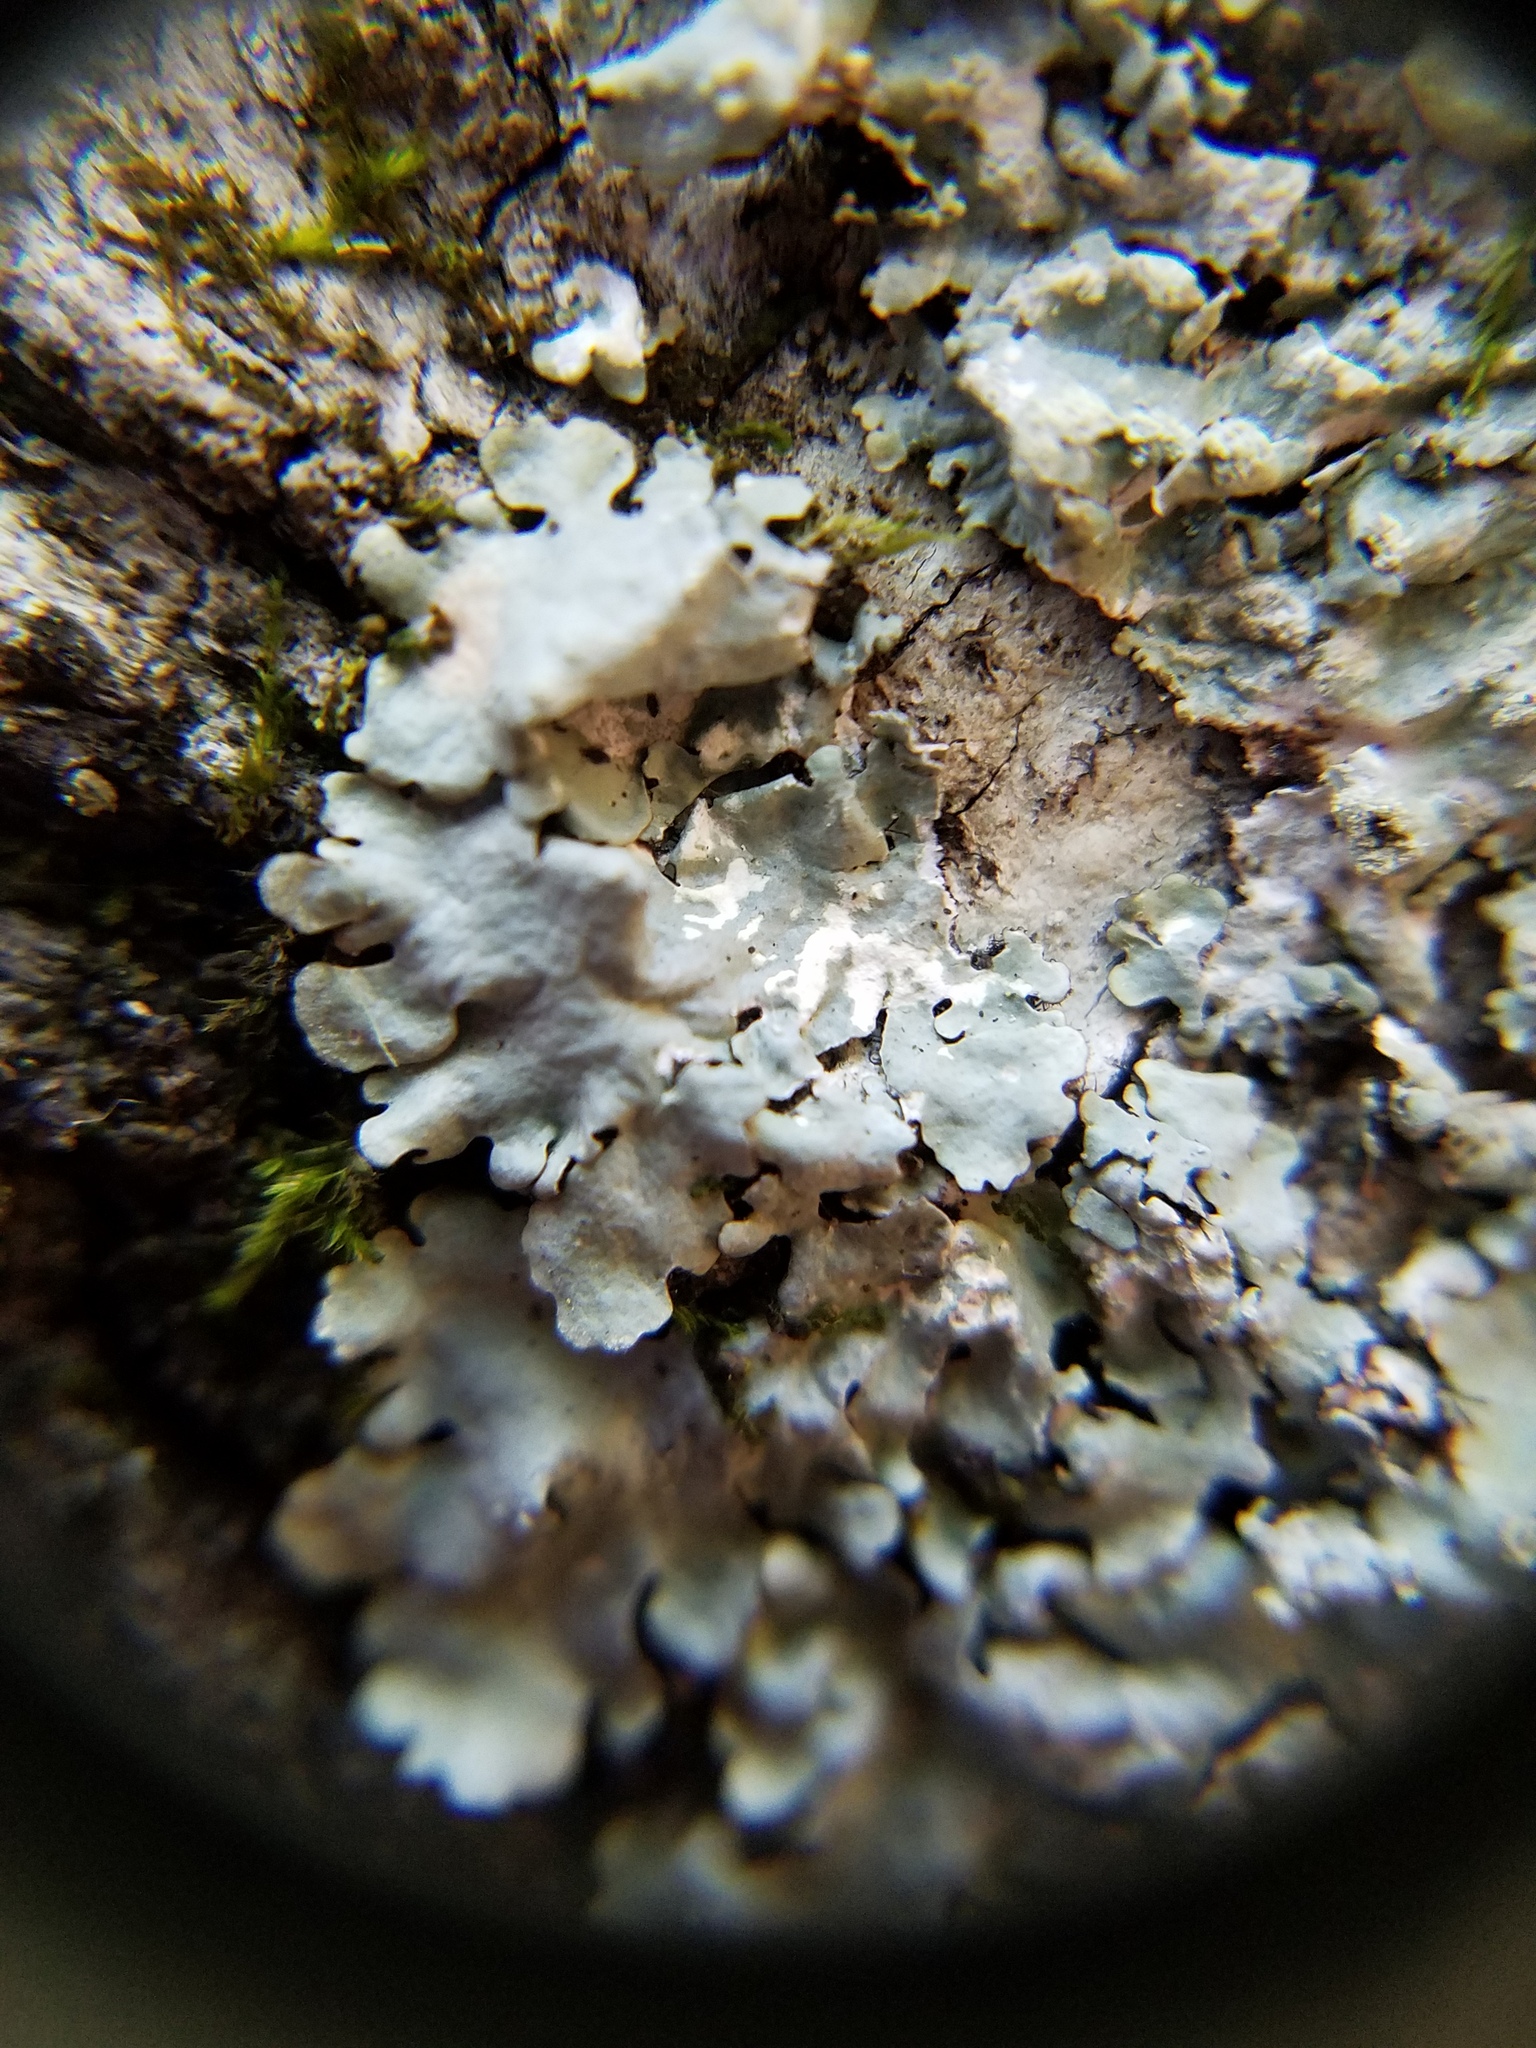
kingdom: Fungi
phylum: Ascomycota
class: Lecanoromycetes
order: Lecanorales
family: Parmeliaceae
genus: Myelochroa
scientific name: Myelochroa aurulenta
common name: Powdery axil-bristle lichen
